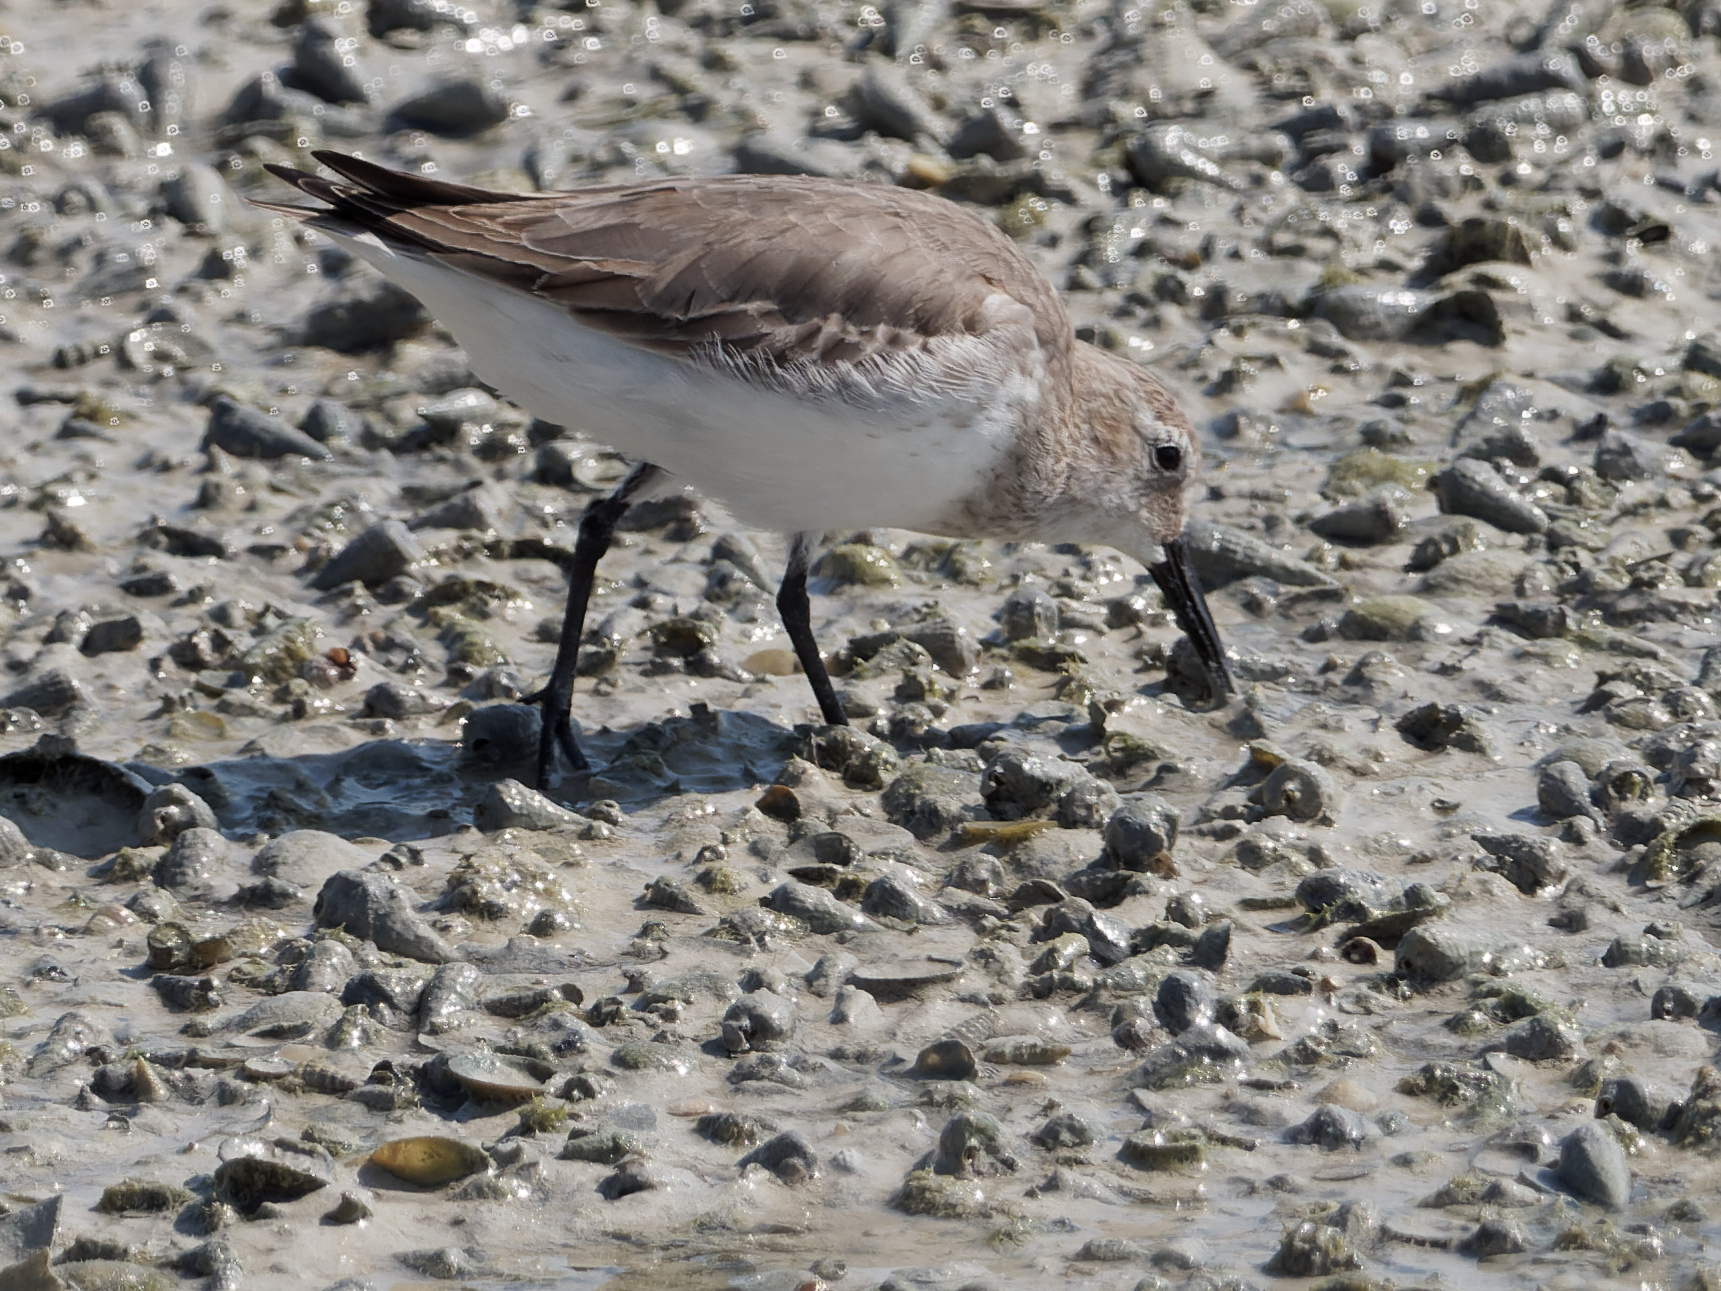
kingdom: Animalia
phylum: Chordata
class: Aves
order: Charadriiformes
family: Scolopacidae
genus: Calidris
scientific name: Calidris alpina
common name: Dunlin
